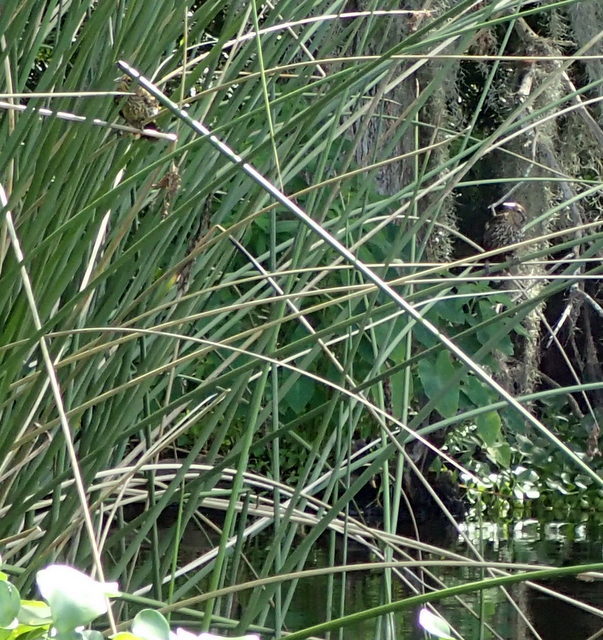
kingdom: Animalia
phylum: Chordata
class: Aves
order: Passeriformes
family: Icteridae
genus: Agelaius
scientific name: Agelaius phoeniceus
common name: Red-winged blackbird
